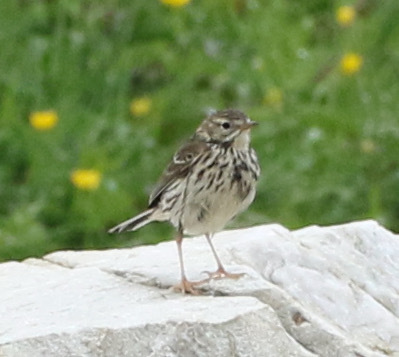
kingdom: Animalia
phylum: Chordata
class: Aves
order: Passeriformes
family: Motacillidae
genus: Anthus
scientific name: Anthus pratensis
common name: Meadow pipit
